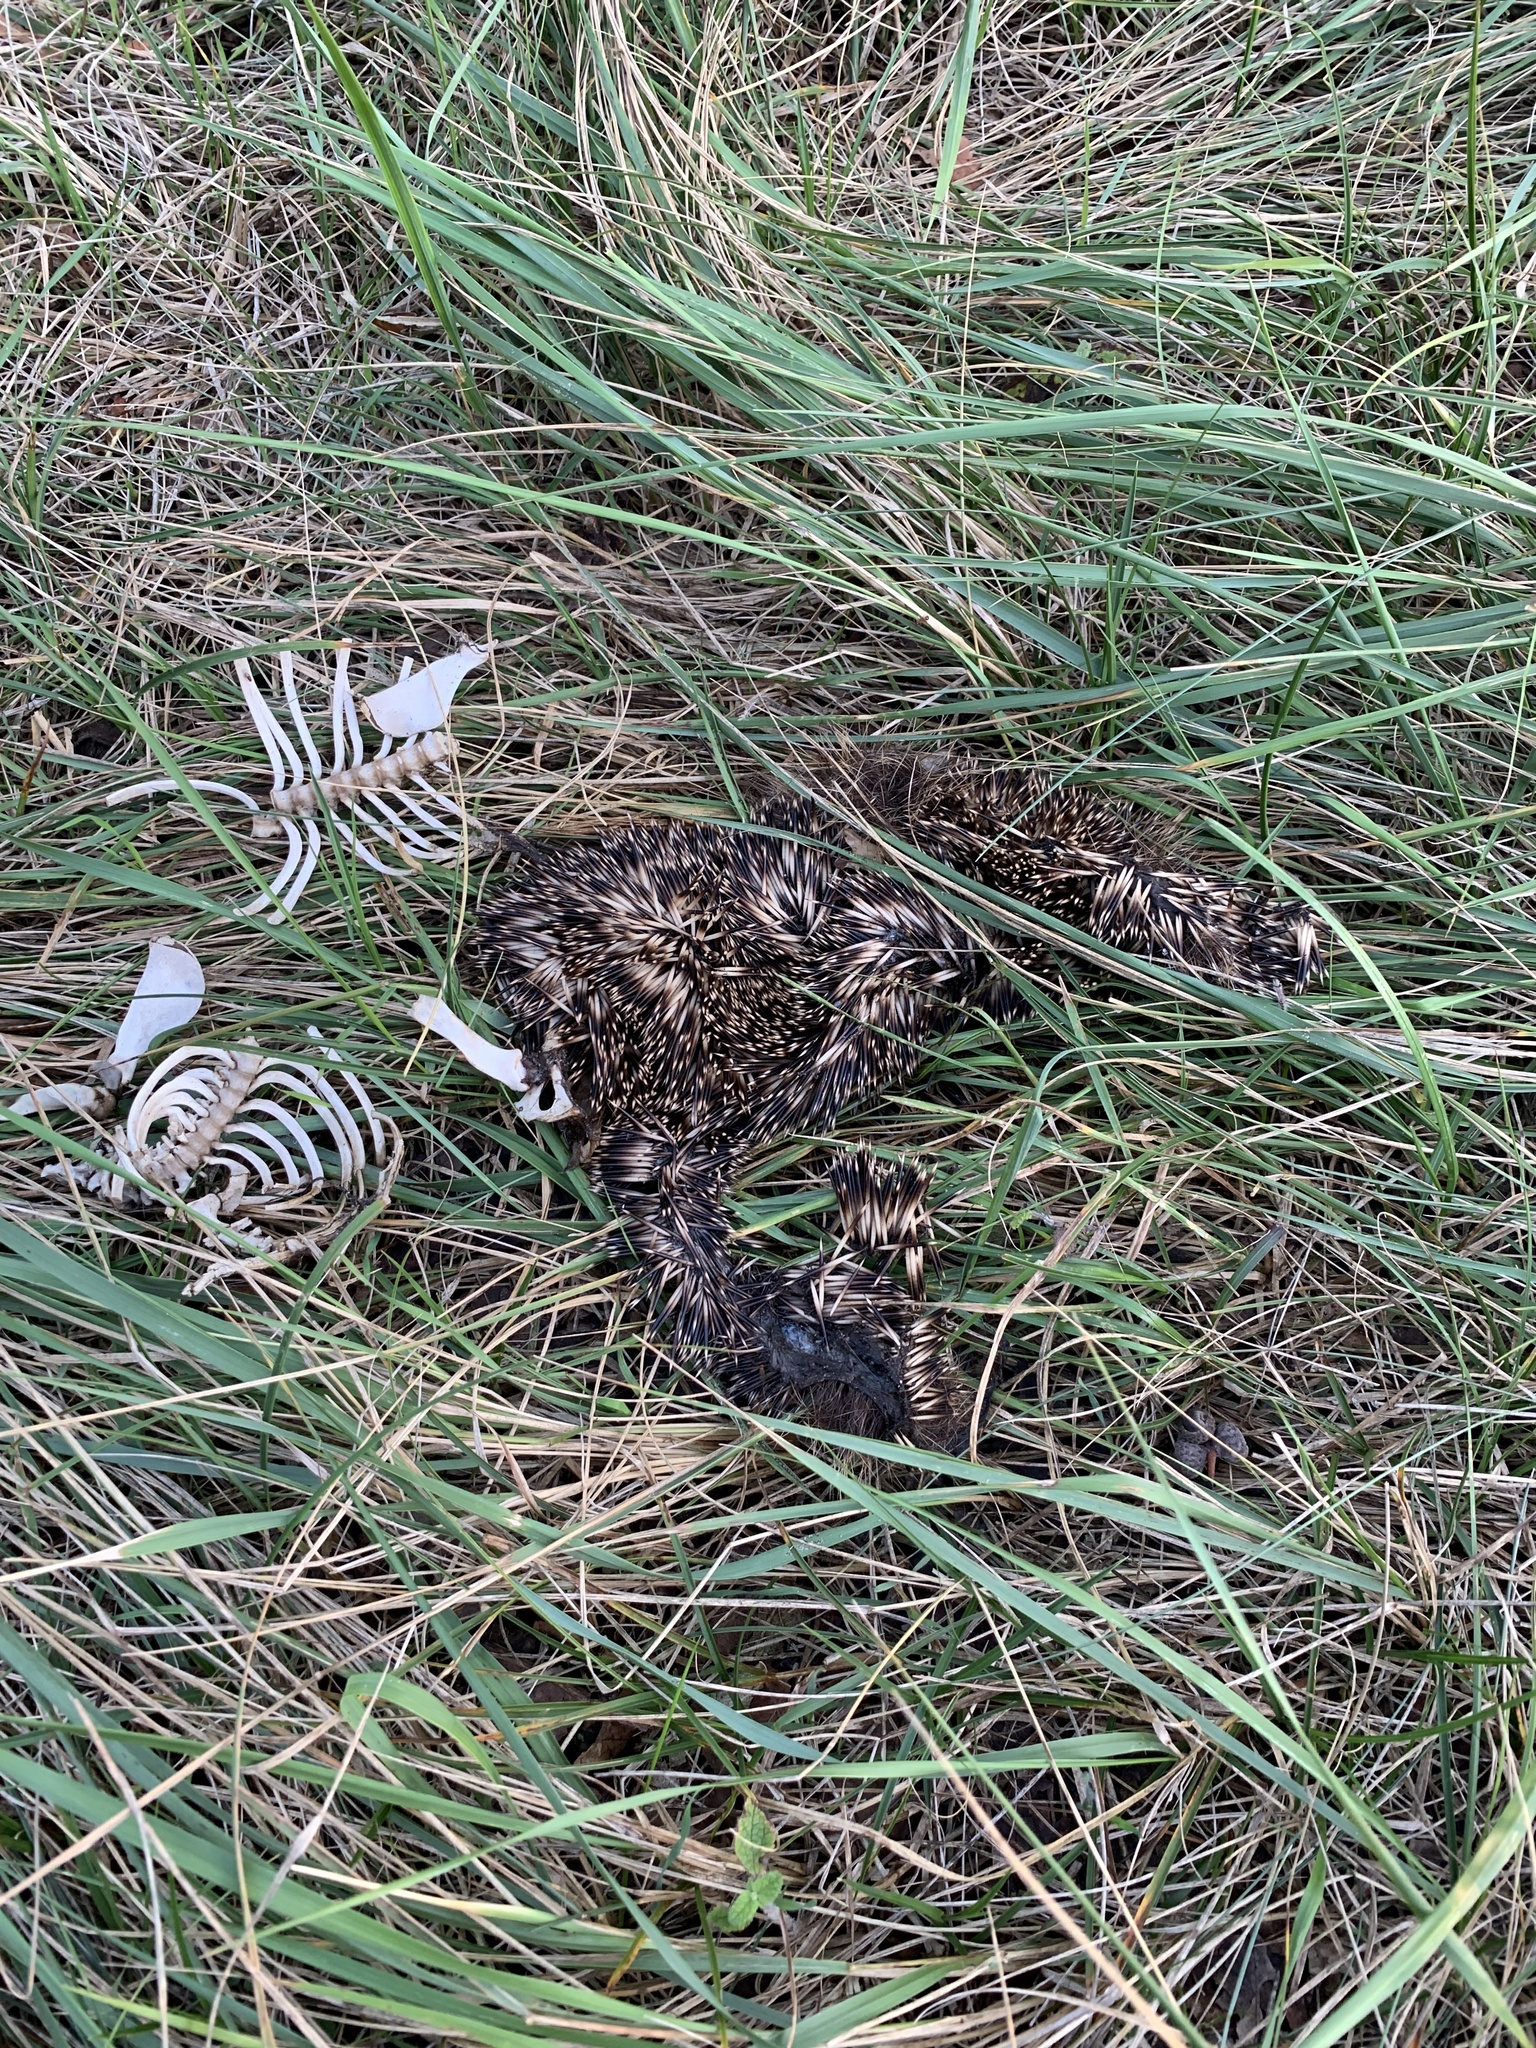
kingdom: Animalia
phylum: Chordata
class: Mammalia
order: Erinaceomorpha
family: Erinaceidae
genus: Erinaceus
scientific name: Erinaceus europaeus
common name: West european hedgehog
